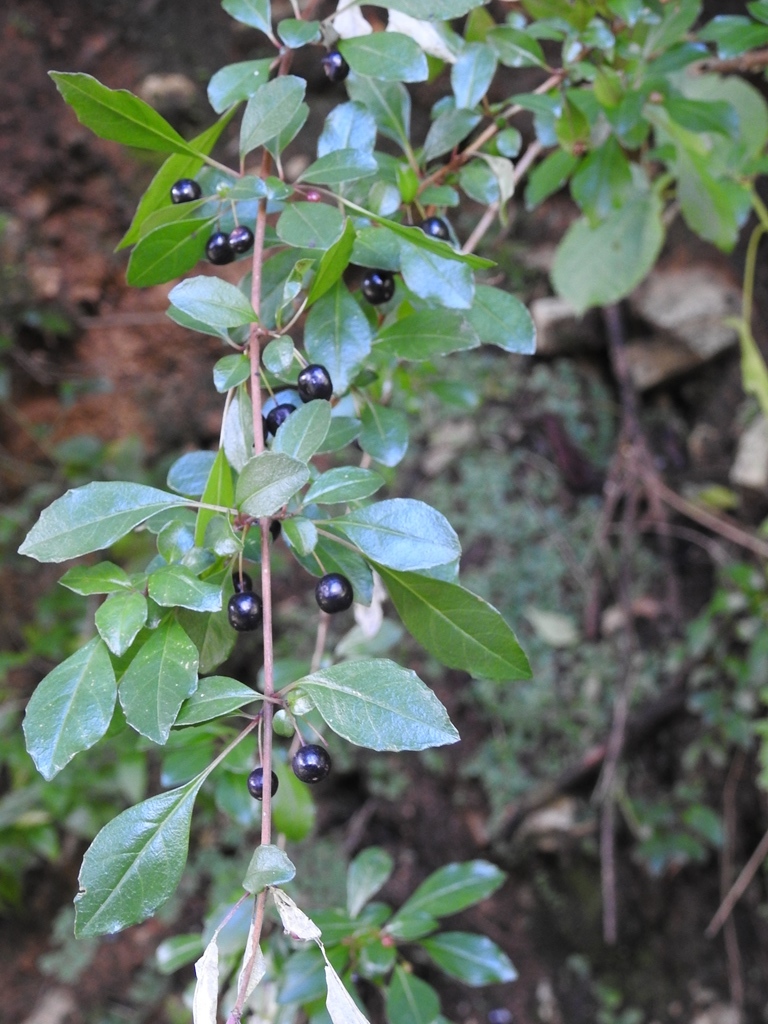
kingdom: Plantae
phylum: Tracheophyta
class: Magnoliopsida
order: Myrtales
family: Onagraceae
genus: Fuchsia
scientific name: Fuchsia encliandra
